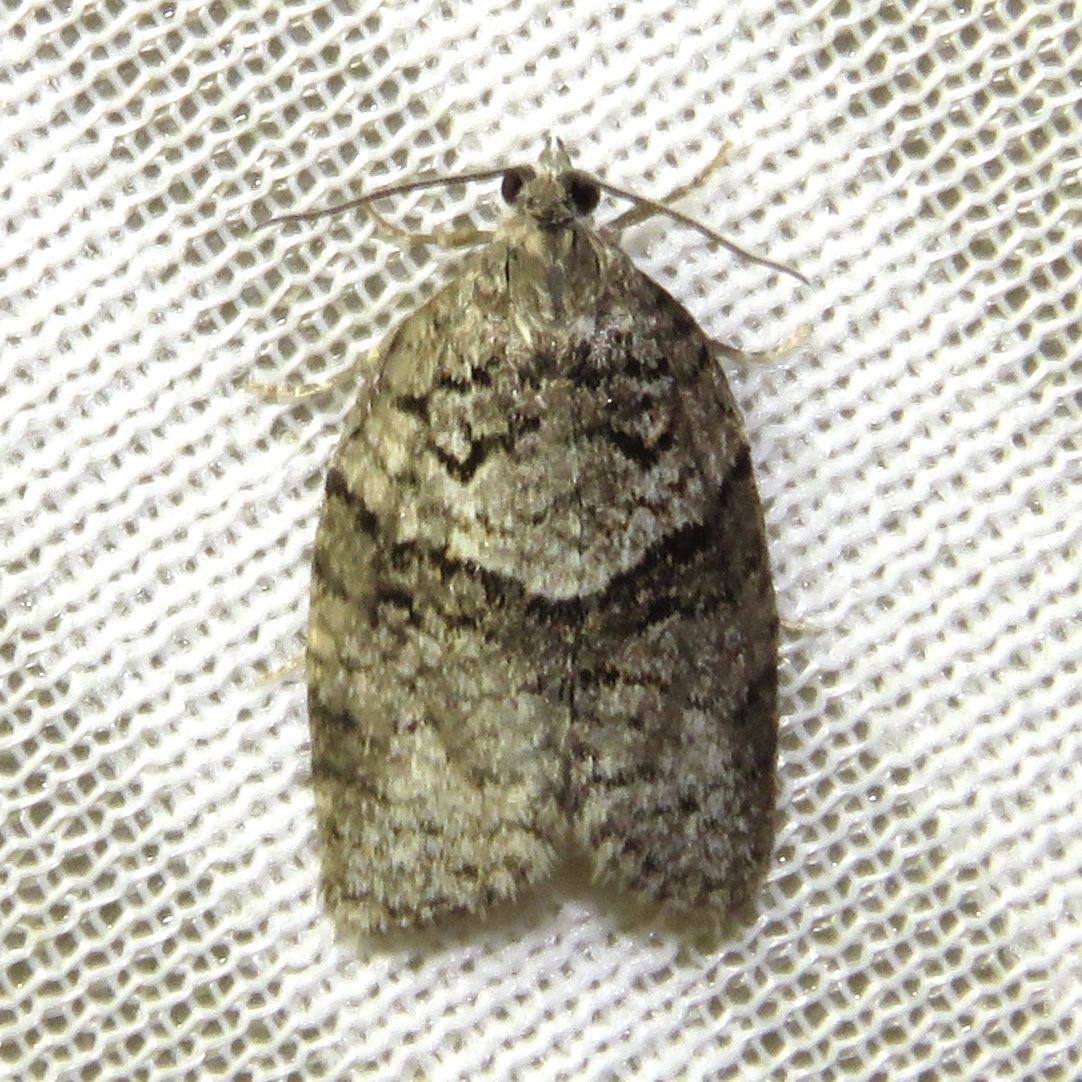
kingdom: Animalia
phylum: Arthropoda
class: Insecta
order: Lepidoptera
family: Tortricidae
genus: Syndemis
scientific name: Syndemis afflictana
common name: Gray leafroller moth
